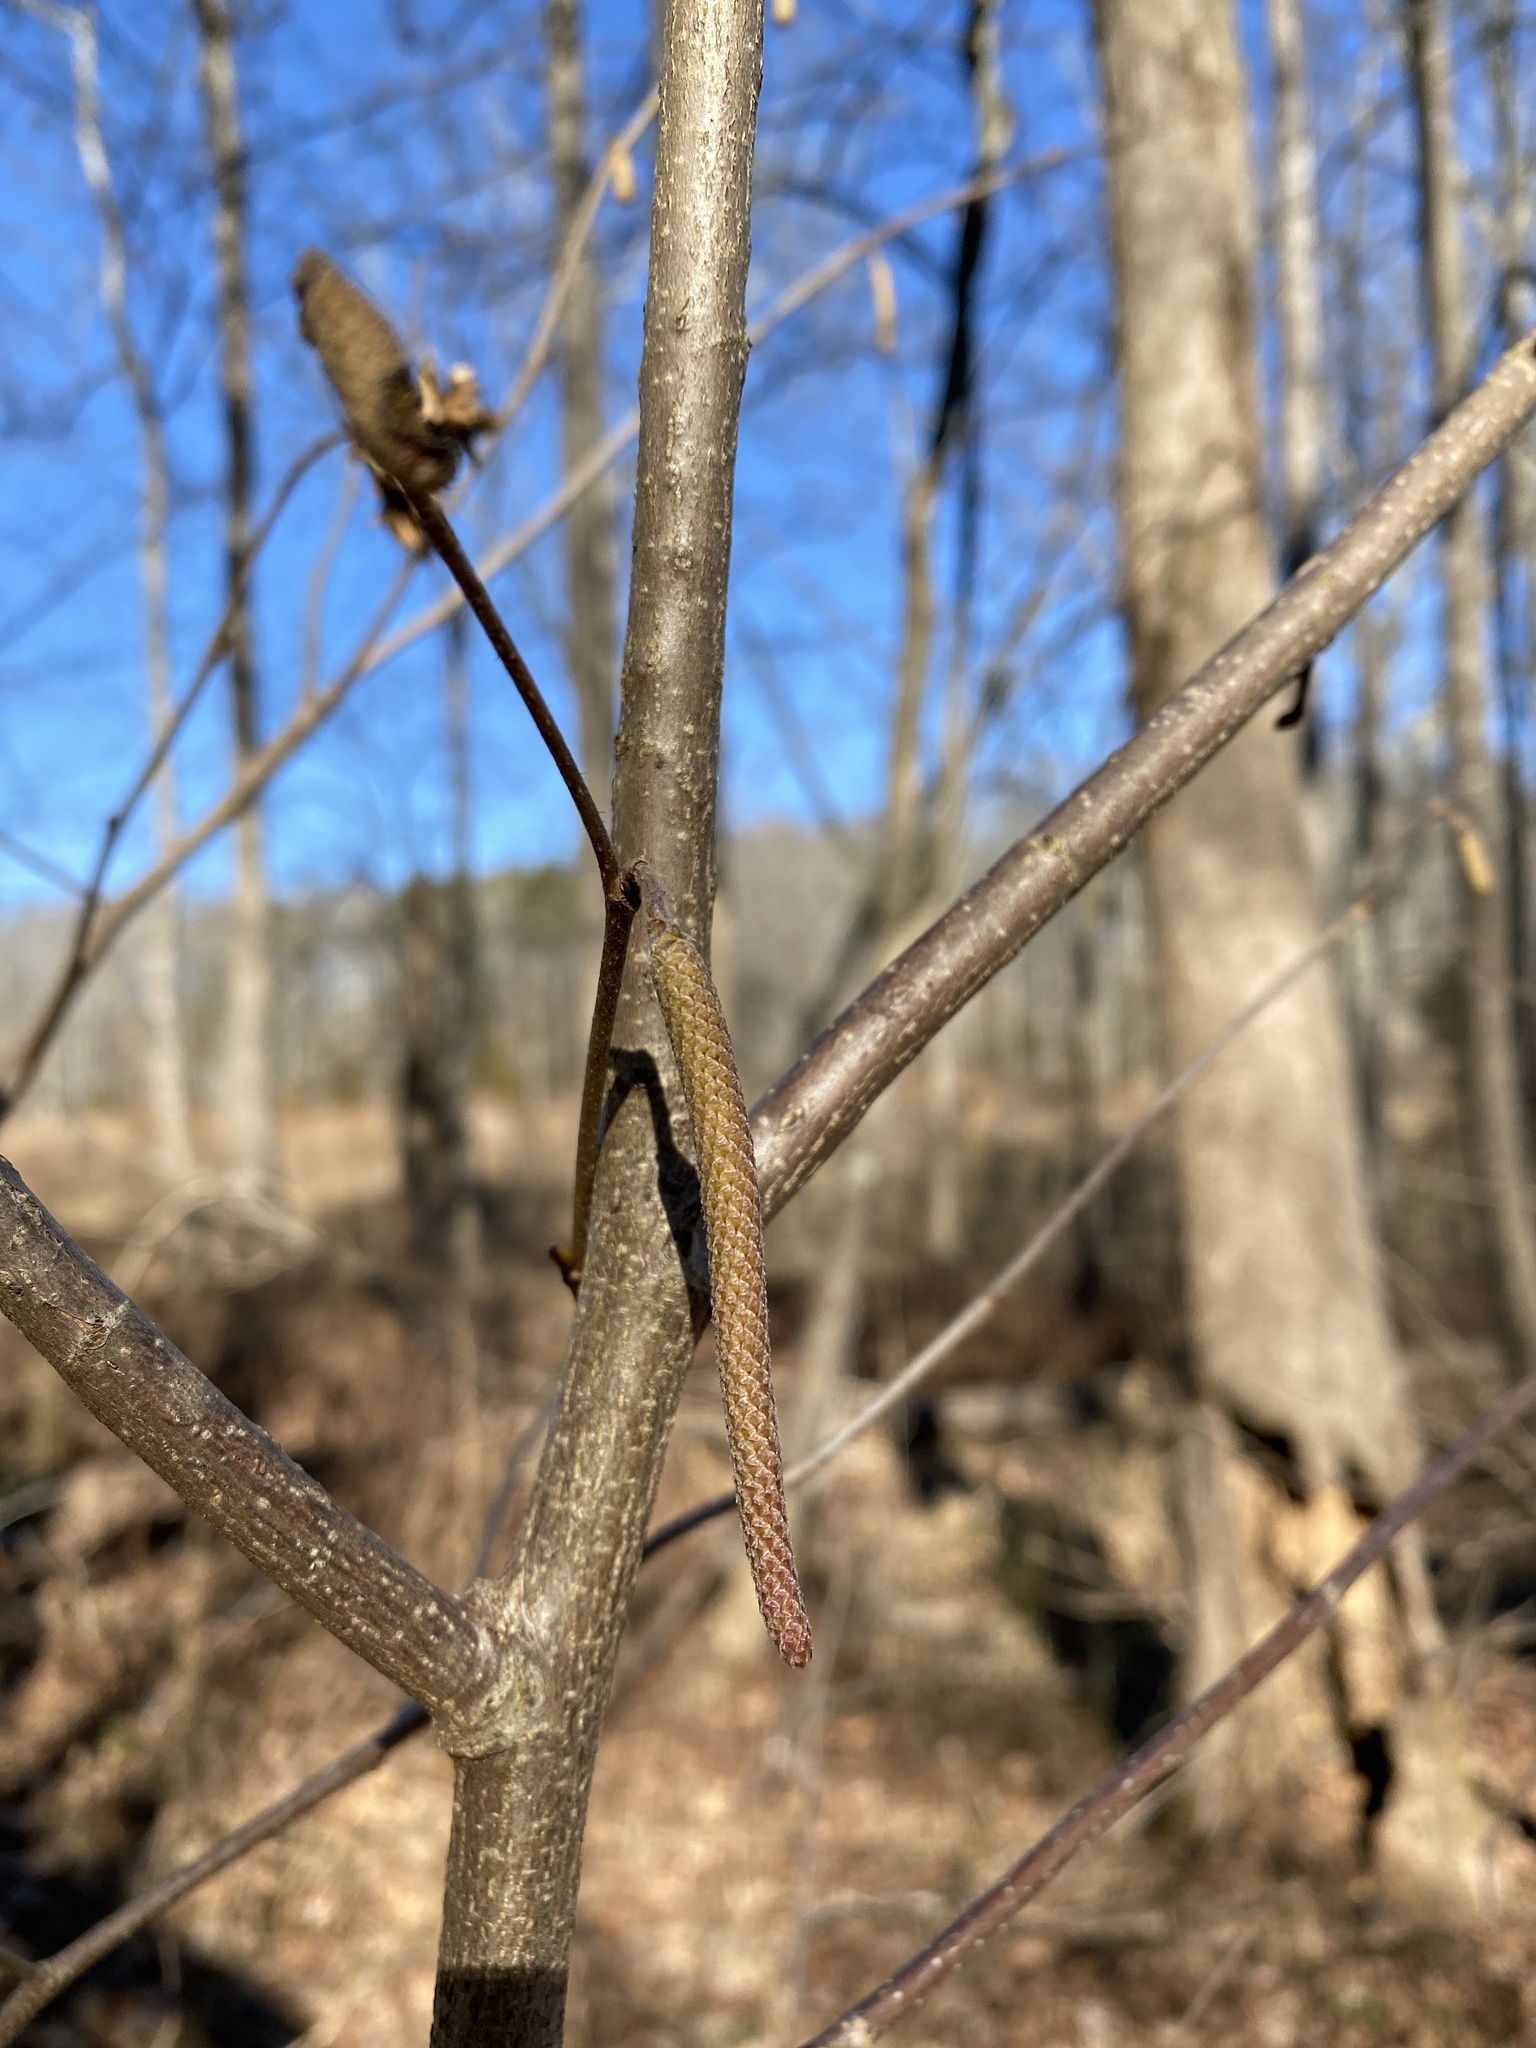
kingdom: Plantae
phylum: Tracheophyta
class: Magnoliopsida
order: Fagales
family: Betulaceae
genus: Corylus
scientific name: Corylus americana
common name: American hazel
